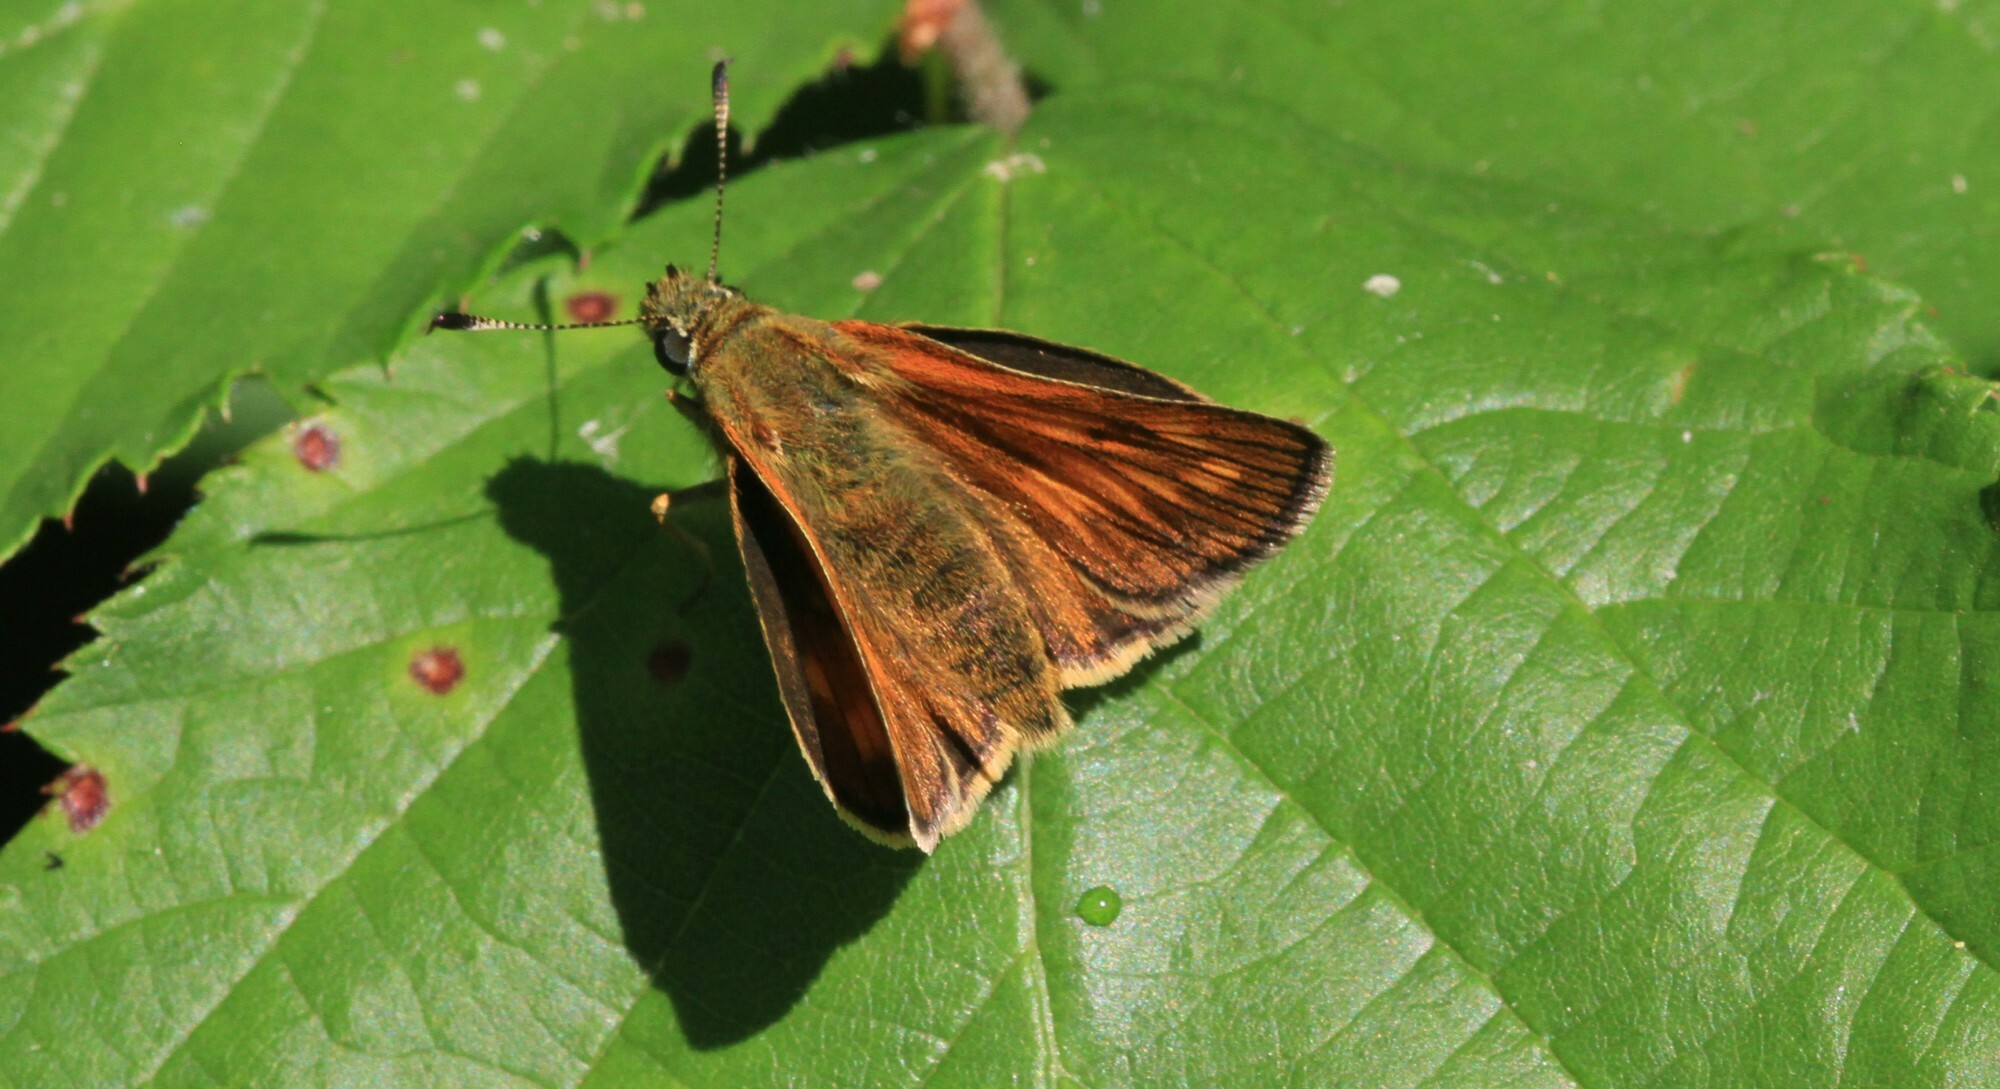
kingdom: Animalia
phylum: Arthropoda
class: Insecta
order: Lepidoptera
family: Hesperiidae
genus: Ochlodes
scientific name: Ochlodes venata
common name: Large skipper
